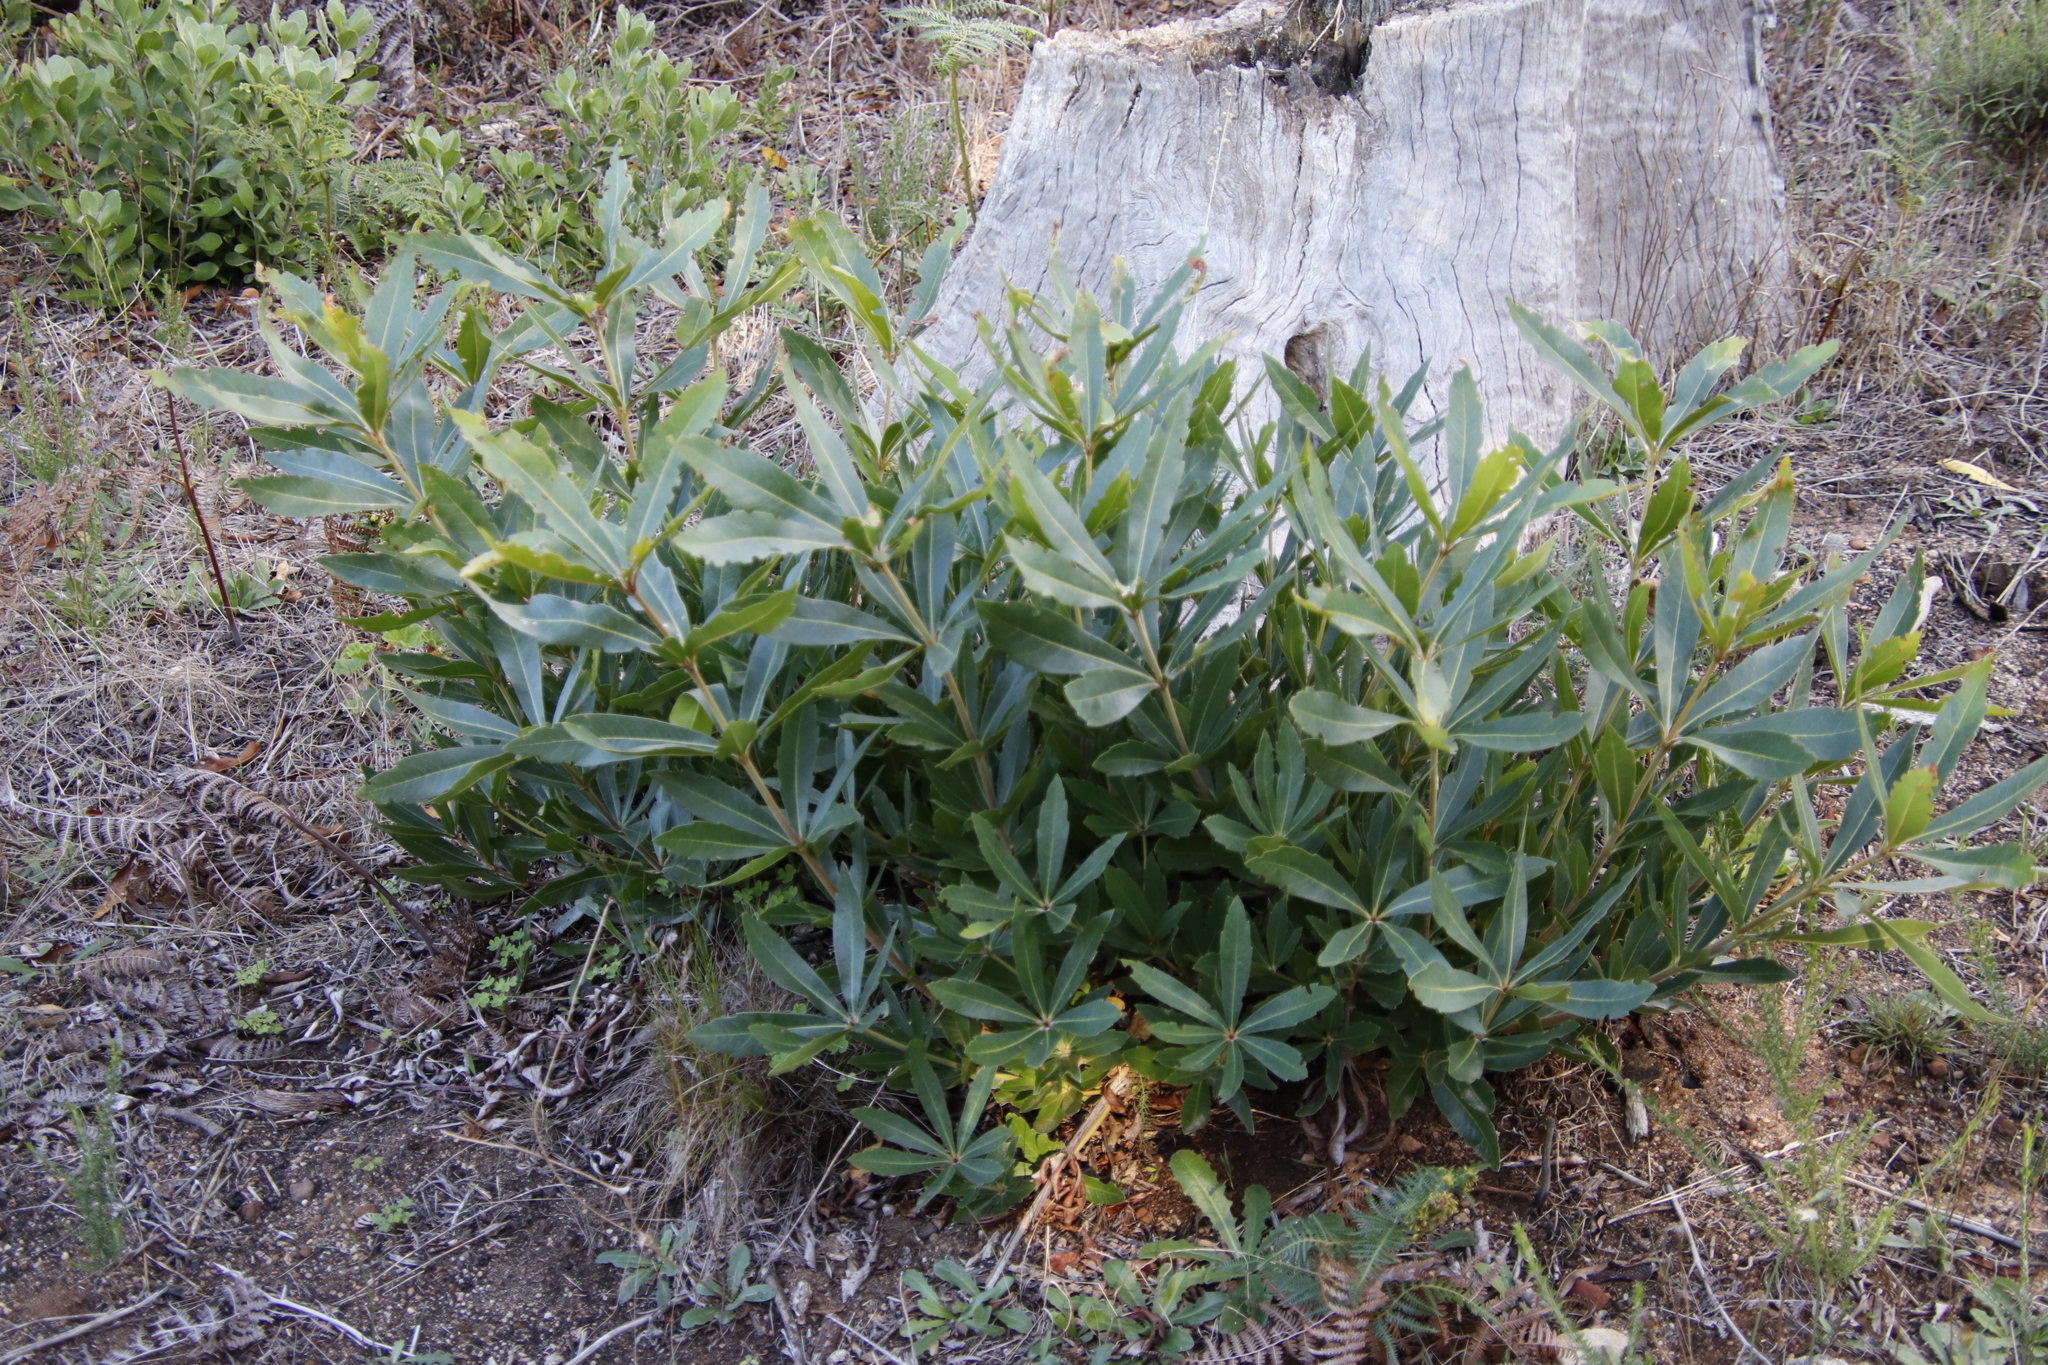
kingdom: Plantae
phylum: Tracheophyta
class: Magnoliopsida
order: Proteales
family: Proteaceae
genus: Brabejum
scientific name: Brabejum stellatifolium
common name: Wild almond
